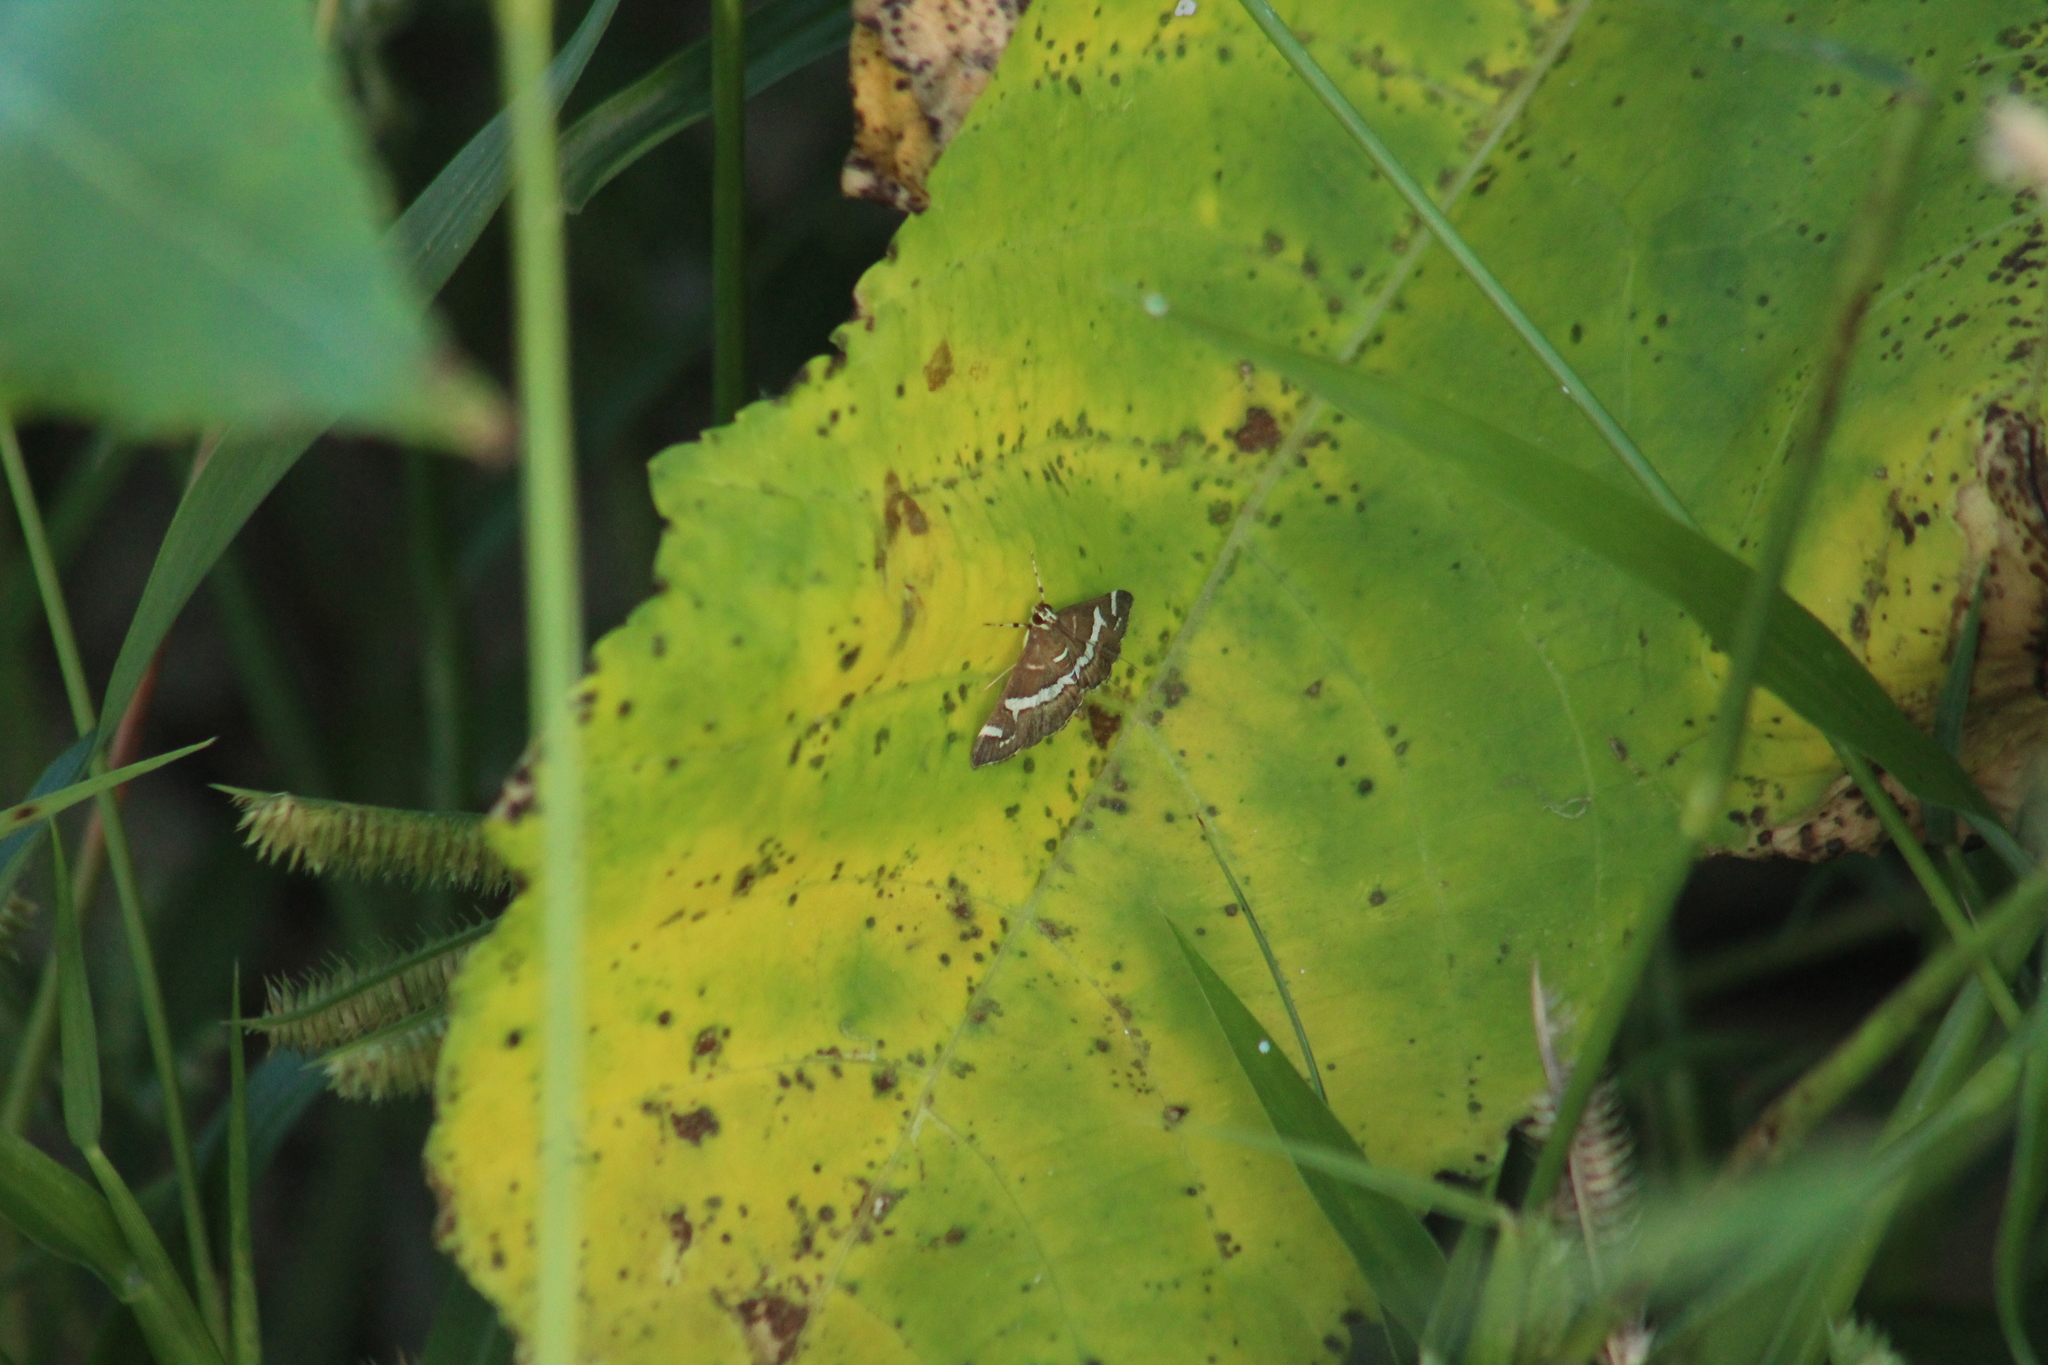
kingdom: Animalia
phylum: Arthropoda
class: Insecta
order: Lepidoptera
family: Crambidae
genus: Spoladea
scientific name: Spoladea recurvalis
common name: Beet webworm moth
